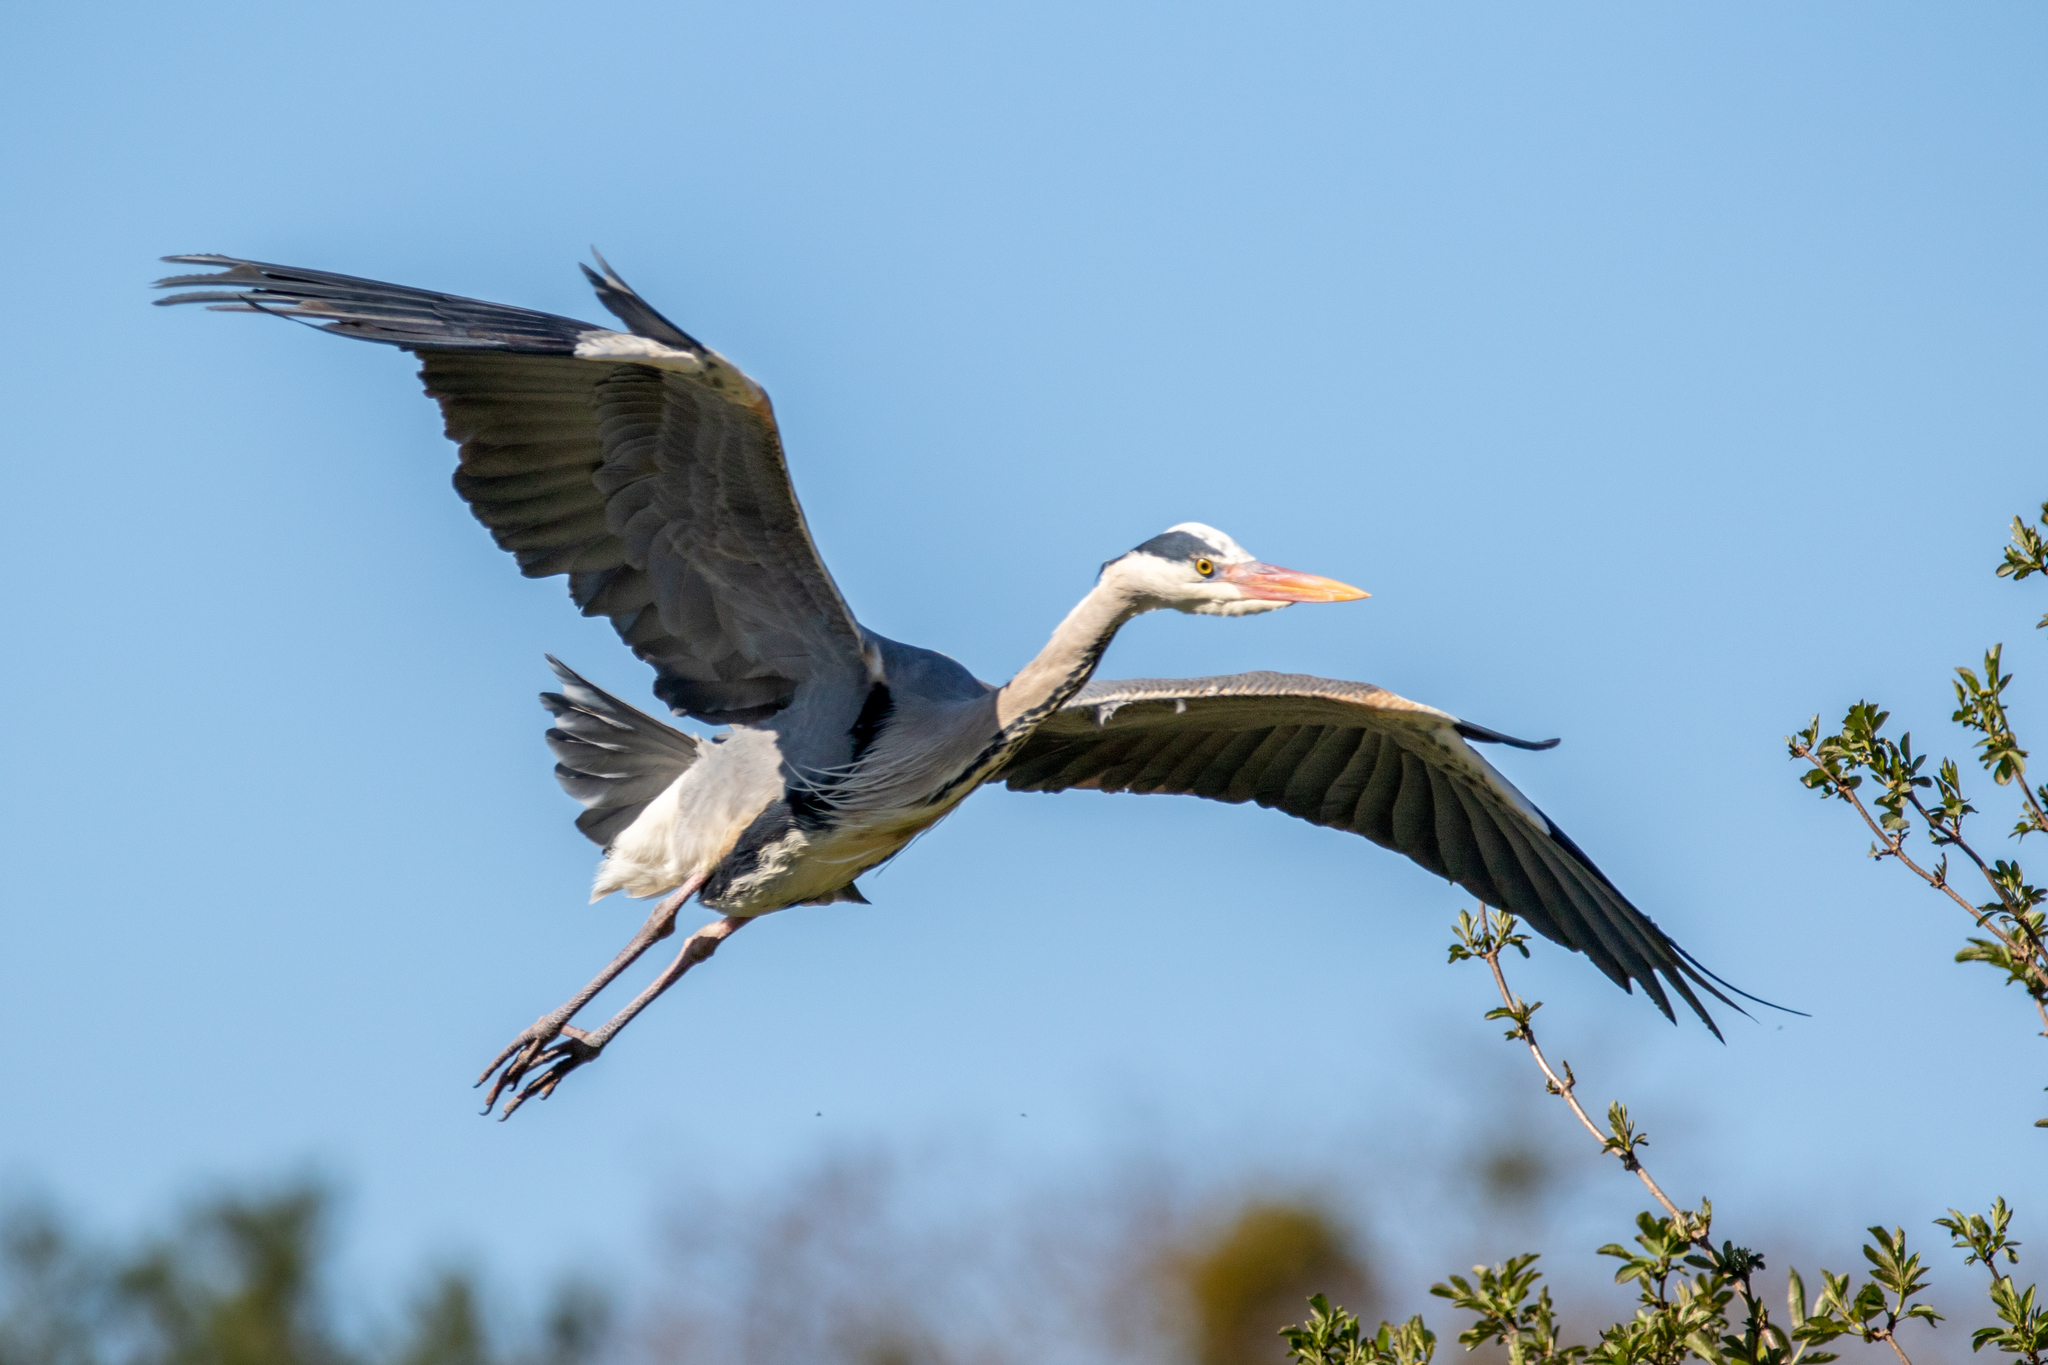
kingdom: Animalia
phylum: Chordata
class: Aves
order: Pelecaniformes
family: Ardeidae
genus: Ardea
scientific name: Ardea cinerea
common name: Grey heron
